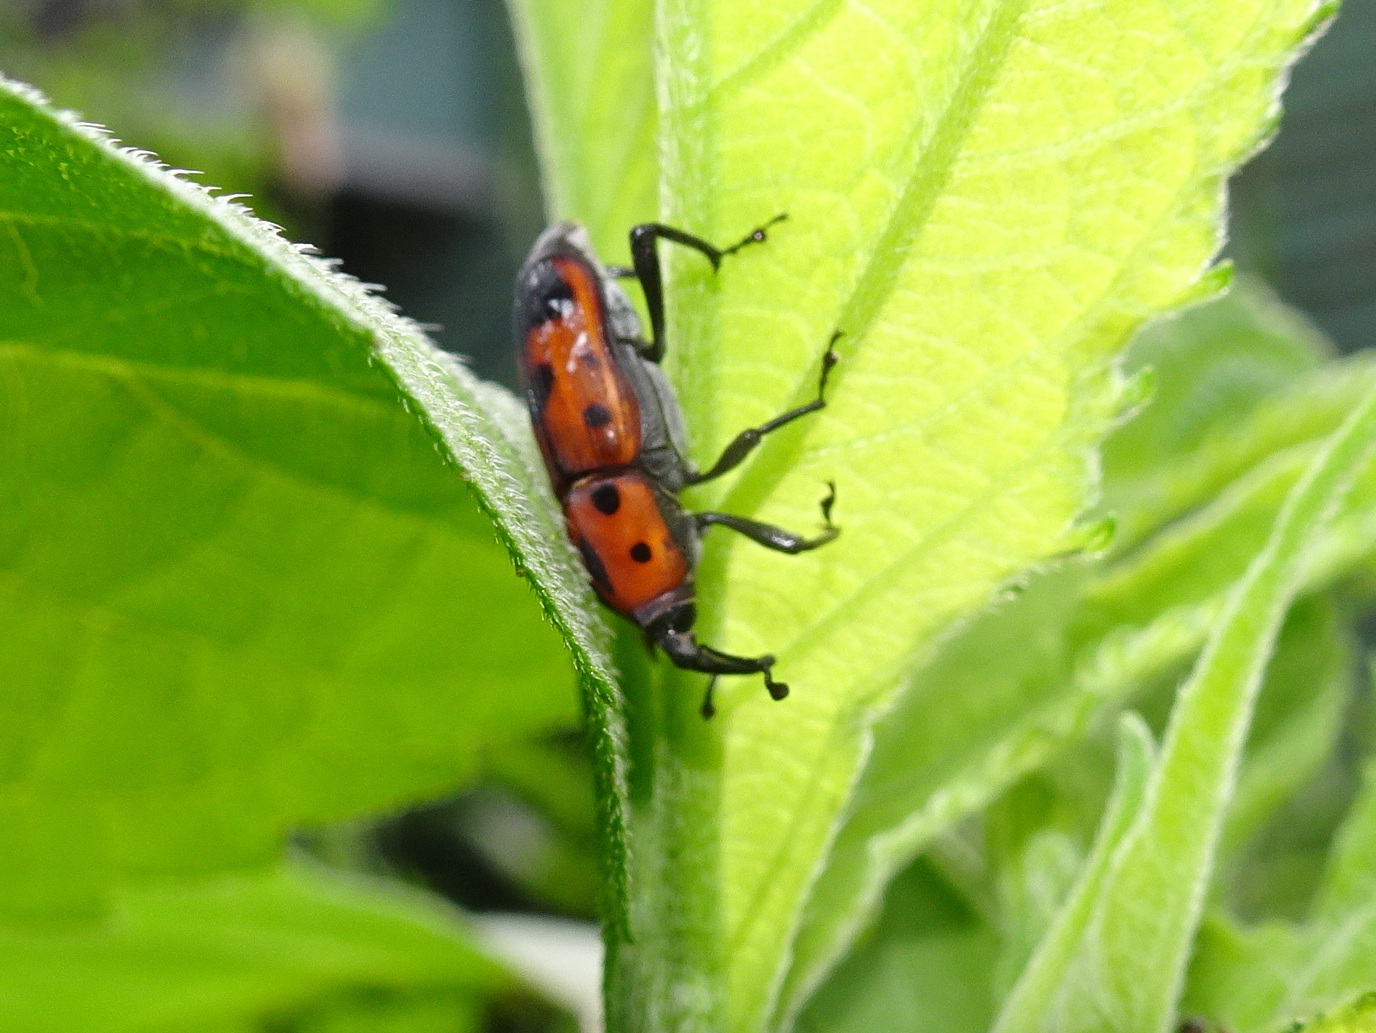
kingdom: Animalia
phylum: Arthropoda
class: Insecta
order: Coleoptera
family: Dryophthoridae
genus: Rhodobaenus
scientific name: Rhodobaenus quinquepunctatus
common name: Cocklebur weevil
